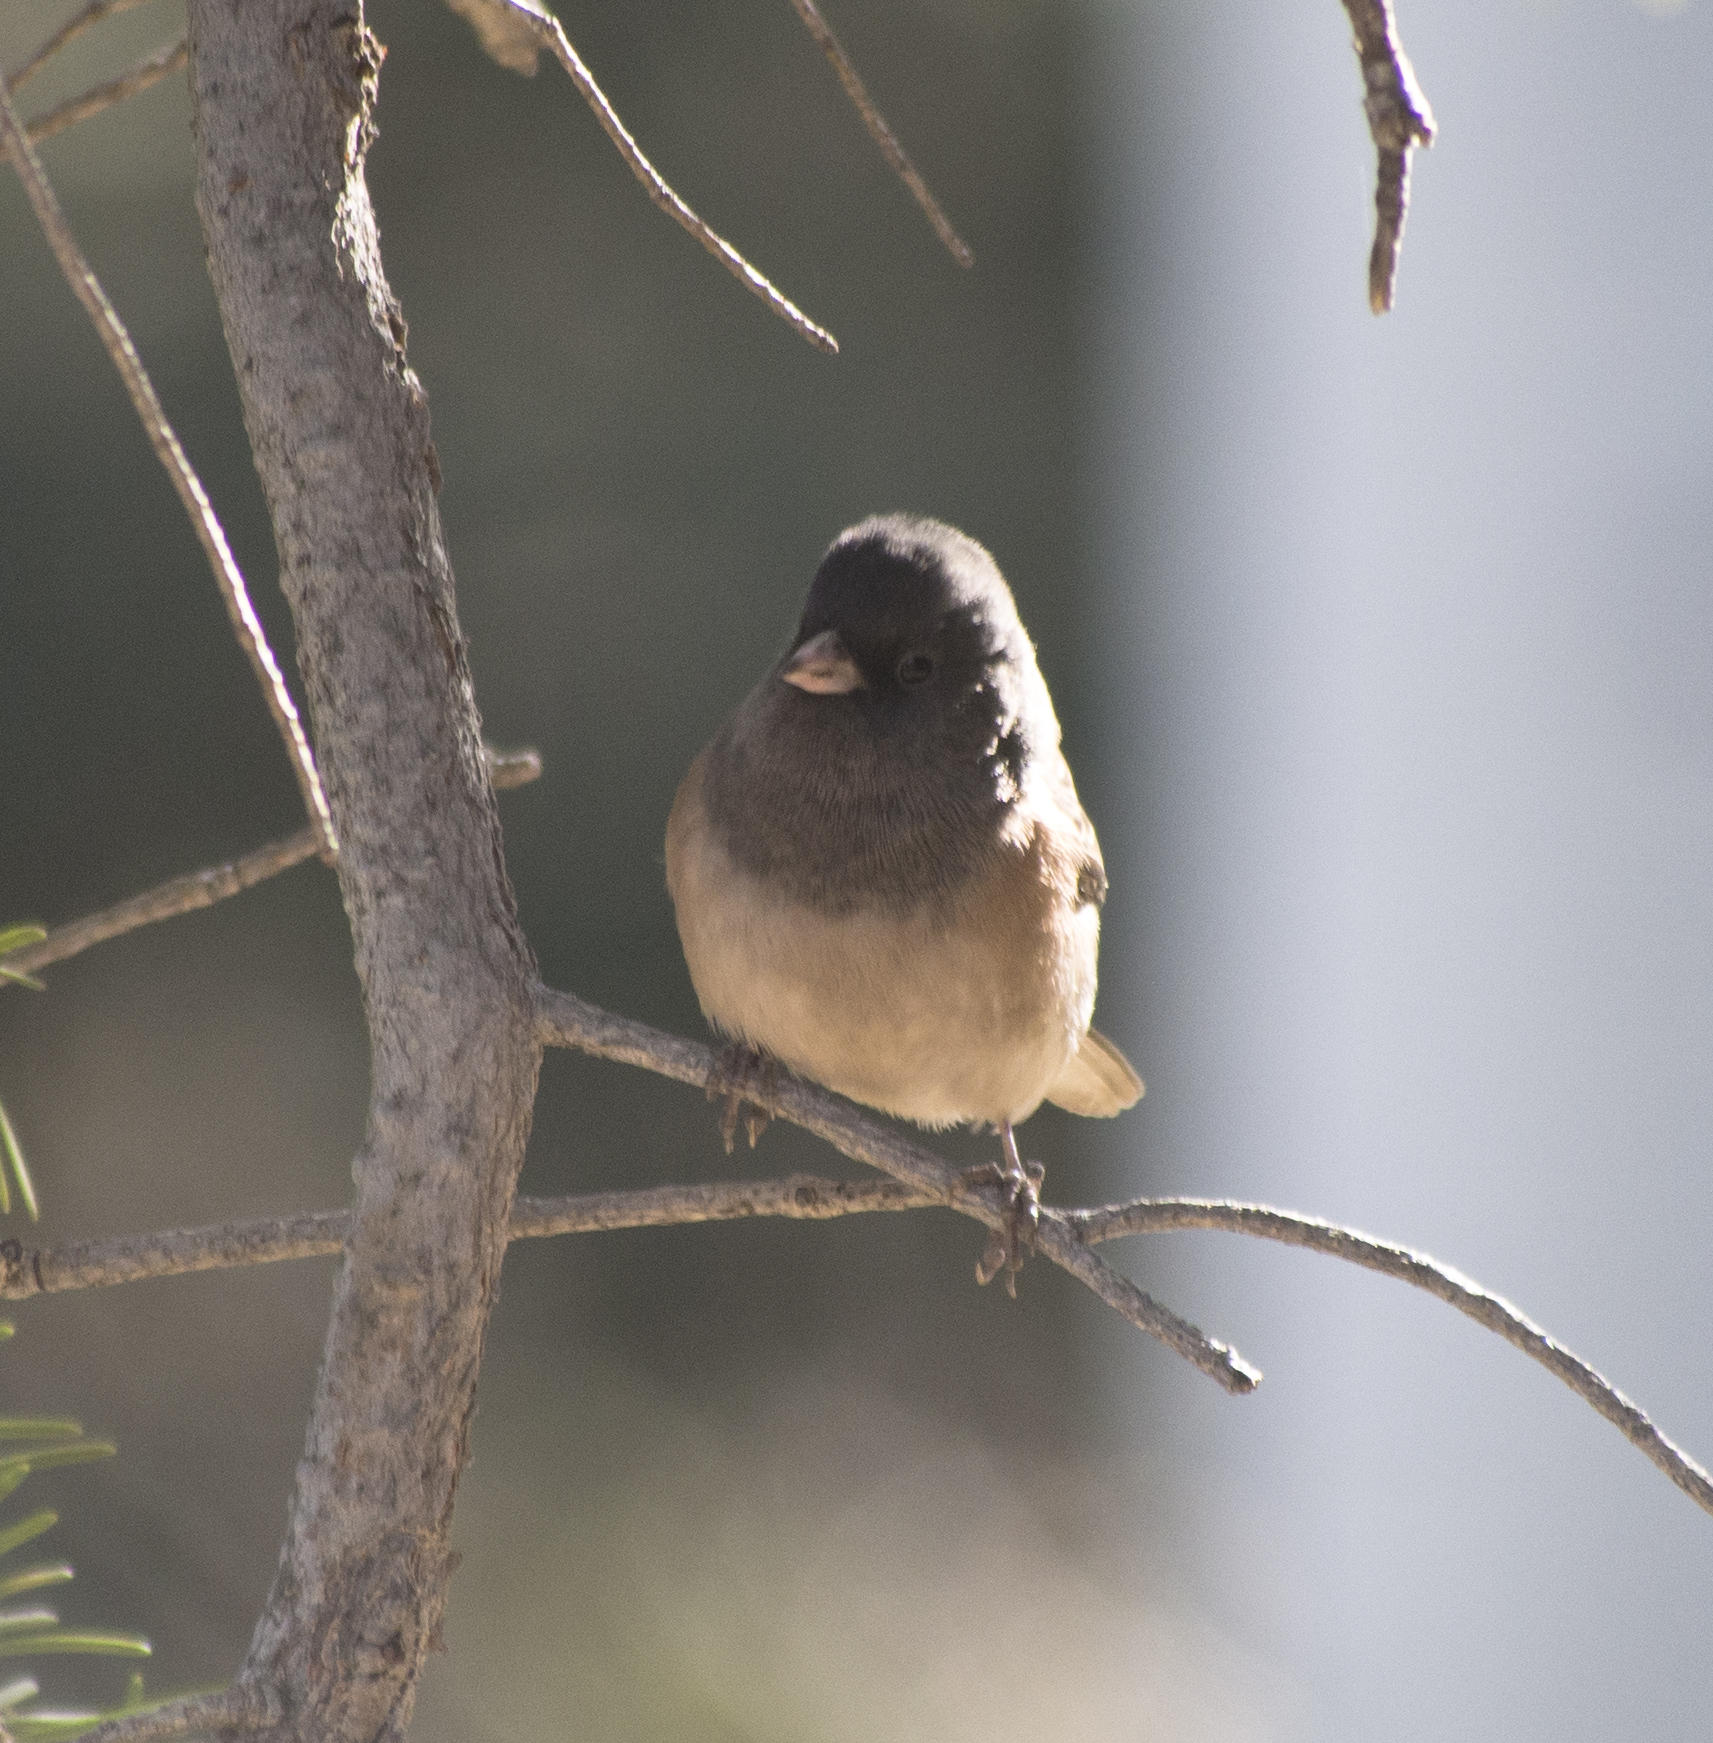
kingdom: Animalia
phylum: Chordata
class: Aves
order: Passeriformes
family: Passerellidae
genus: Junco
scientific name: Junco hyemalis
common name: Dark-eyed junco
